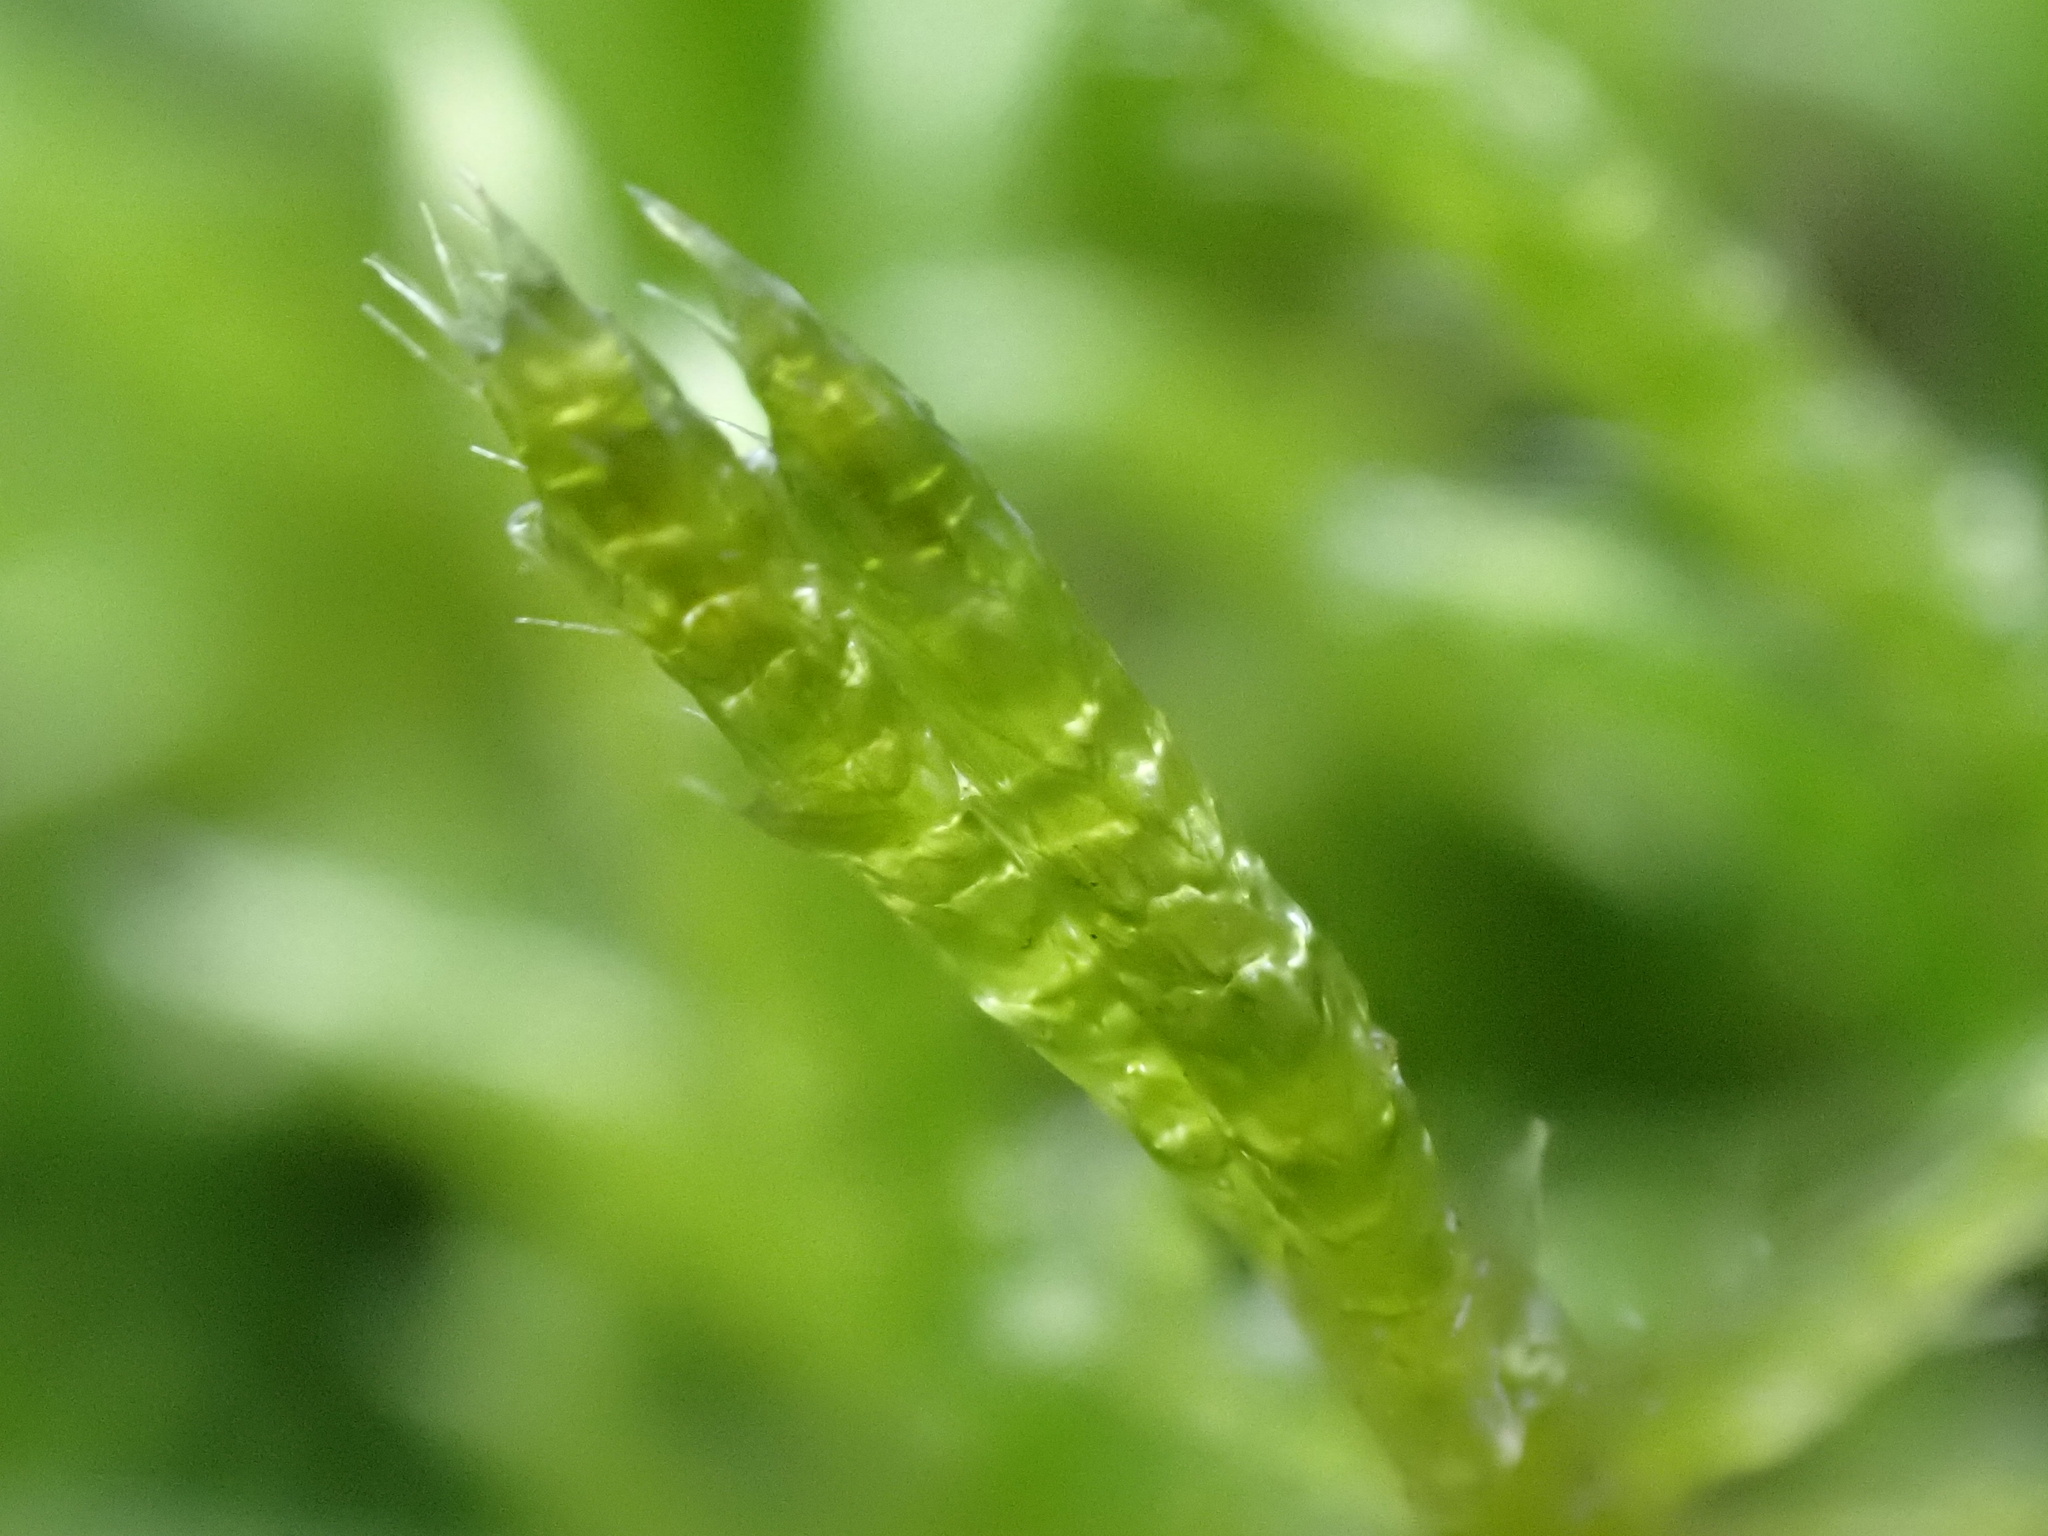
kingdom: Plantae
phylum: Bryophyta
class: Bryopsida
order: Hypnales
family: Brachytheciaceae
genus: Brachythecium
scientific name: Brachythecium albicans
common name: Whitish ragged moss
